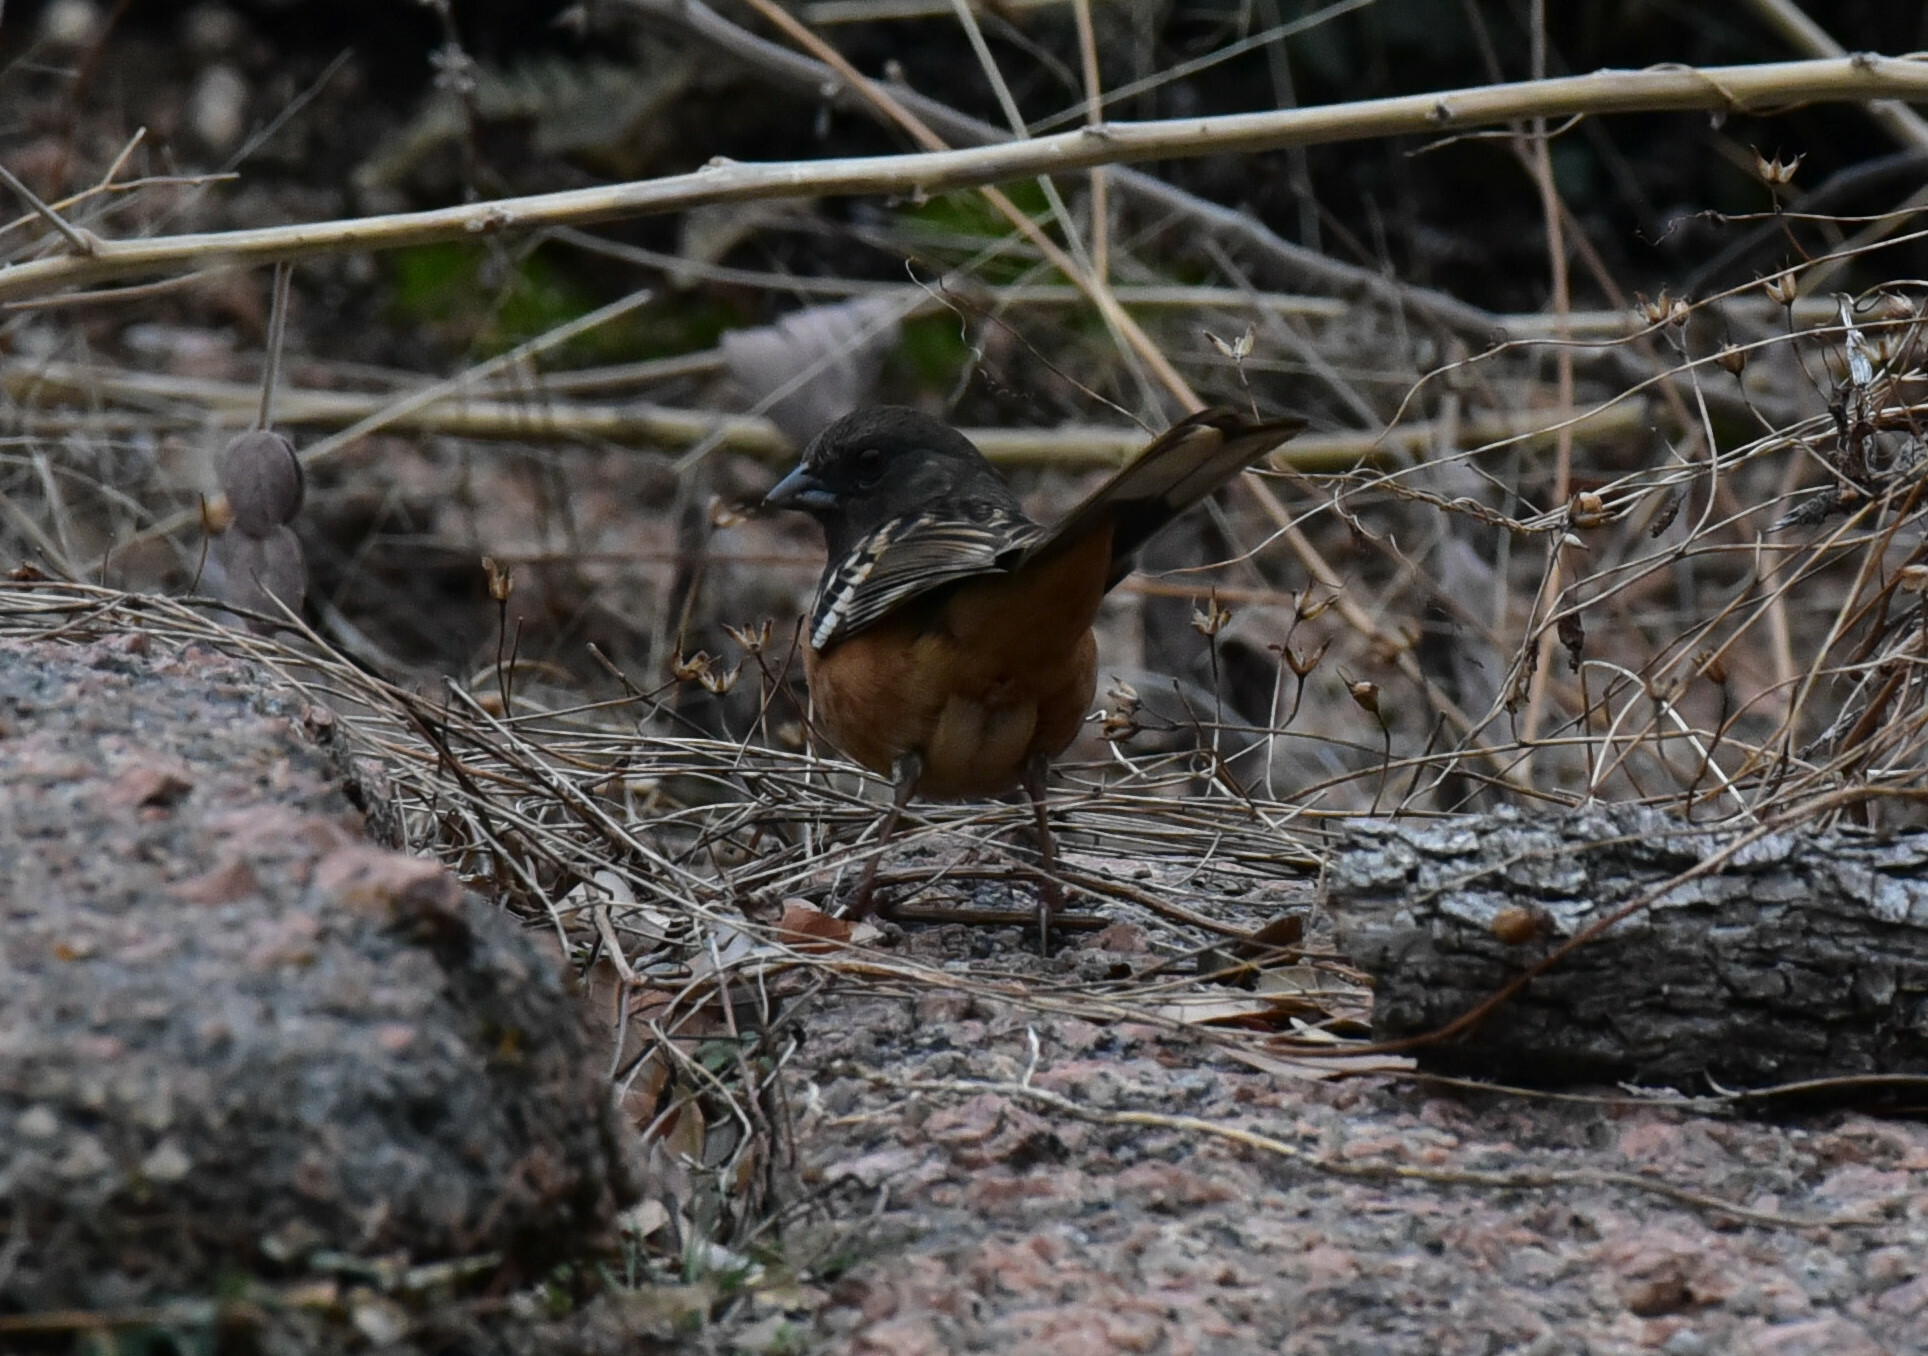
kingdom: Animalia
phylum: Chordata
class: Aves
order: Passeriformes
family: Passerellidae
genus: Pipilo
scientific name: Pipilo maculatus
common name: Spotted towhee
